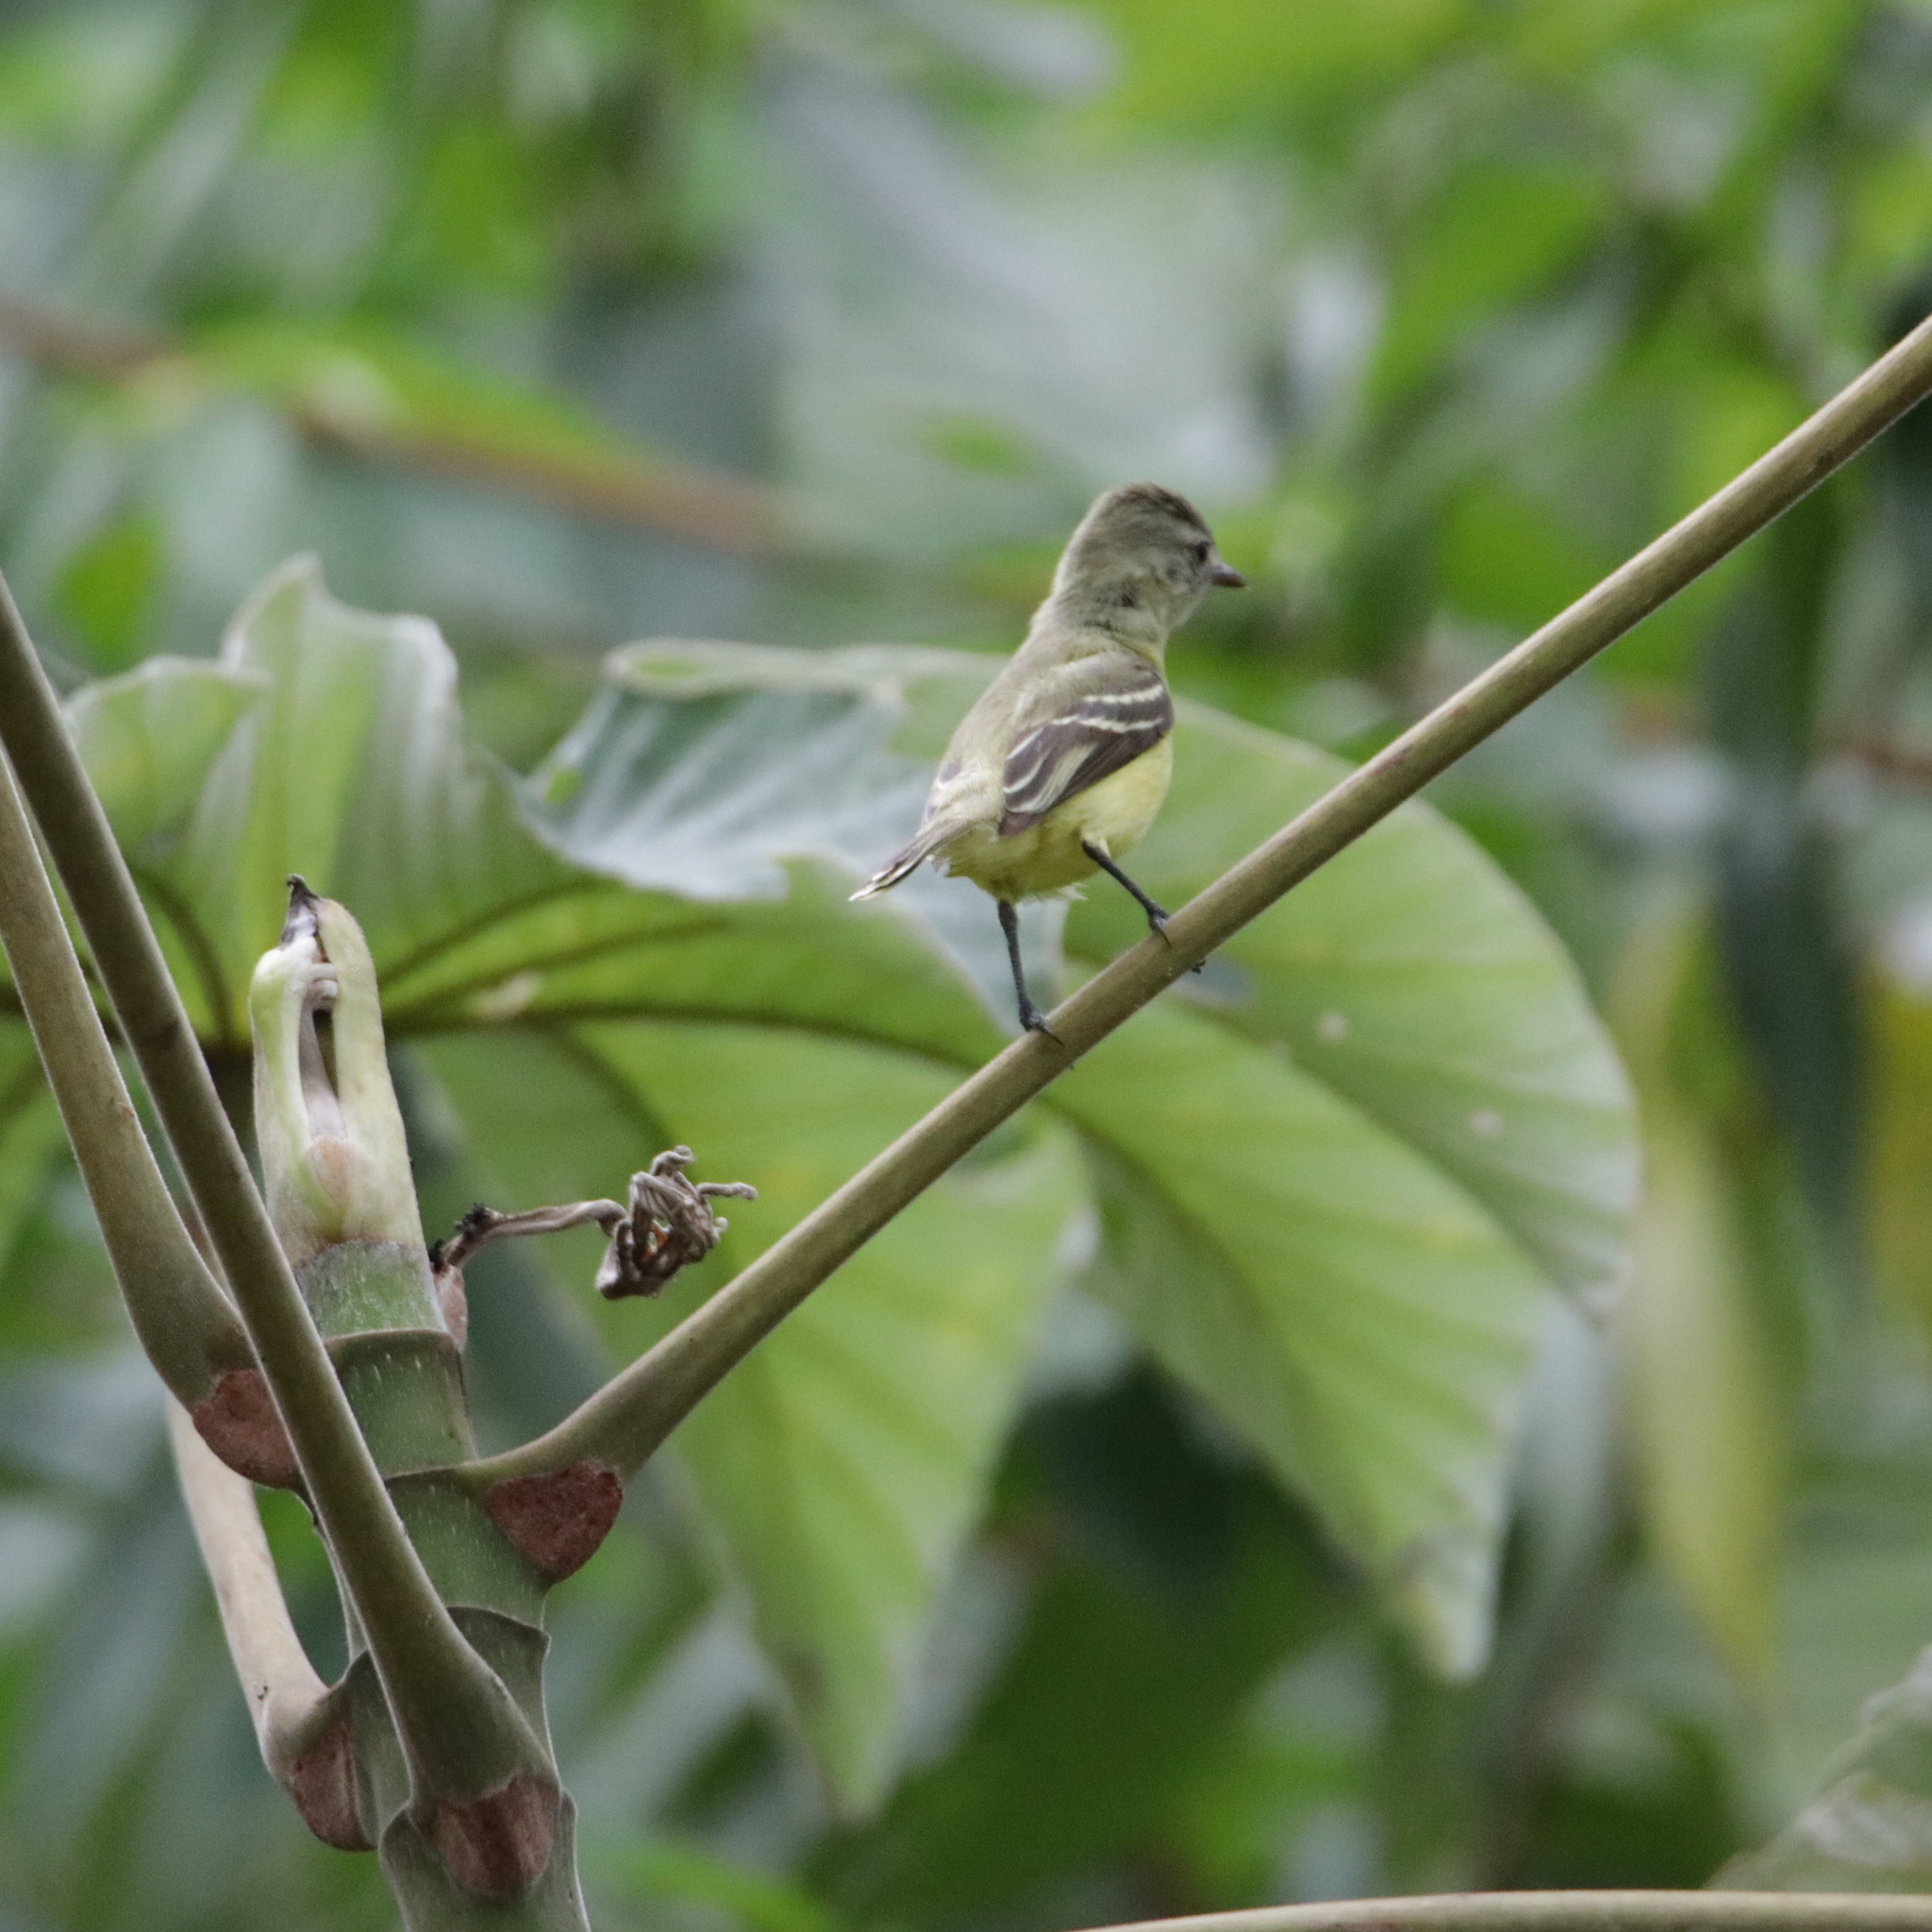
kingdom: Animalia
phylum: Chordata
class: Aves
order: Passeriformes
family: Tyrannidae
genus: Camptostoma
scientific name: Camptostoma obsoletum
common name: Southern beardless-tyrannulet
